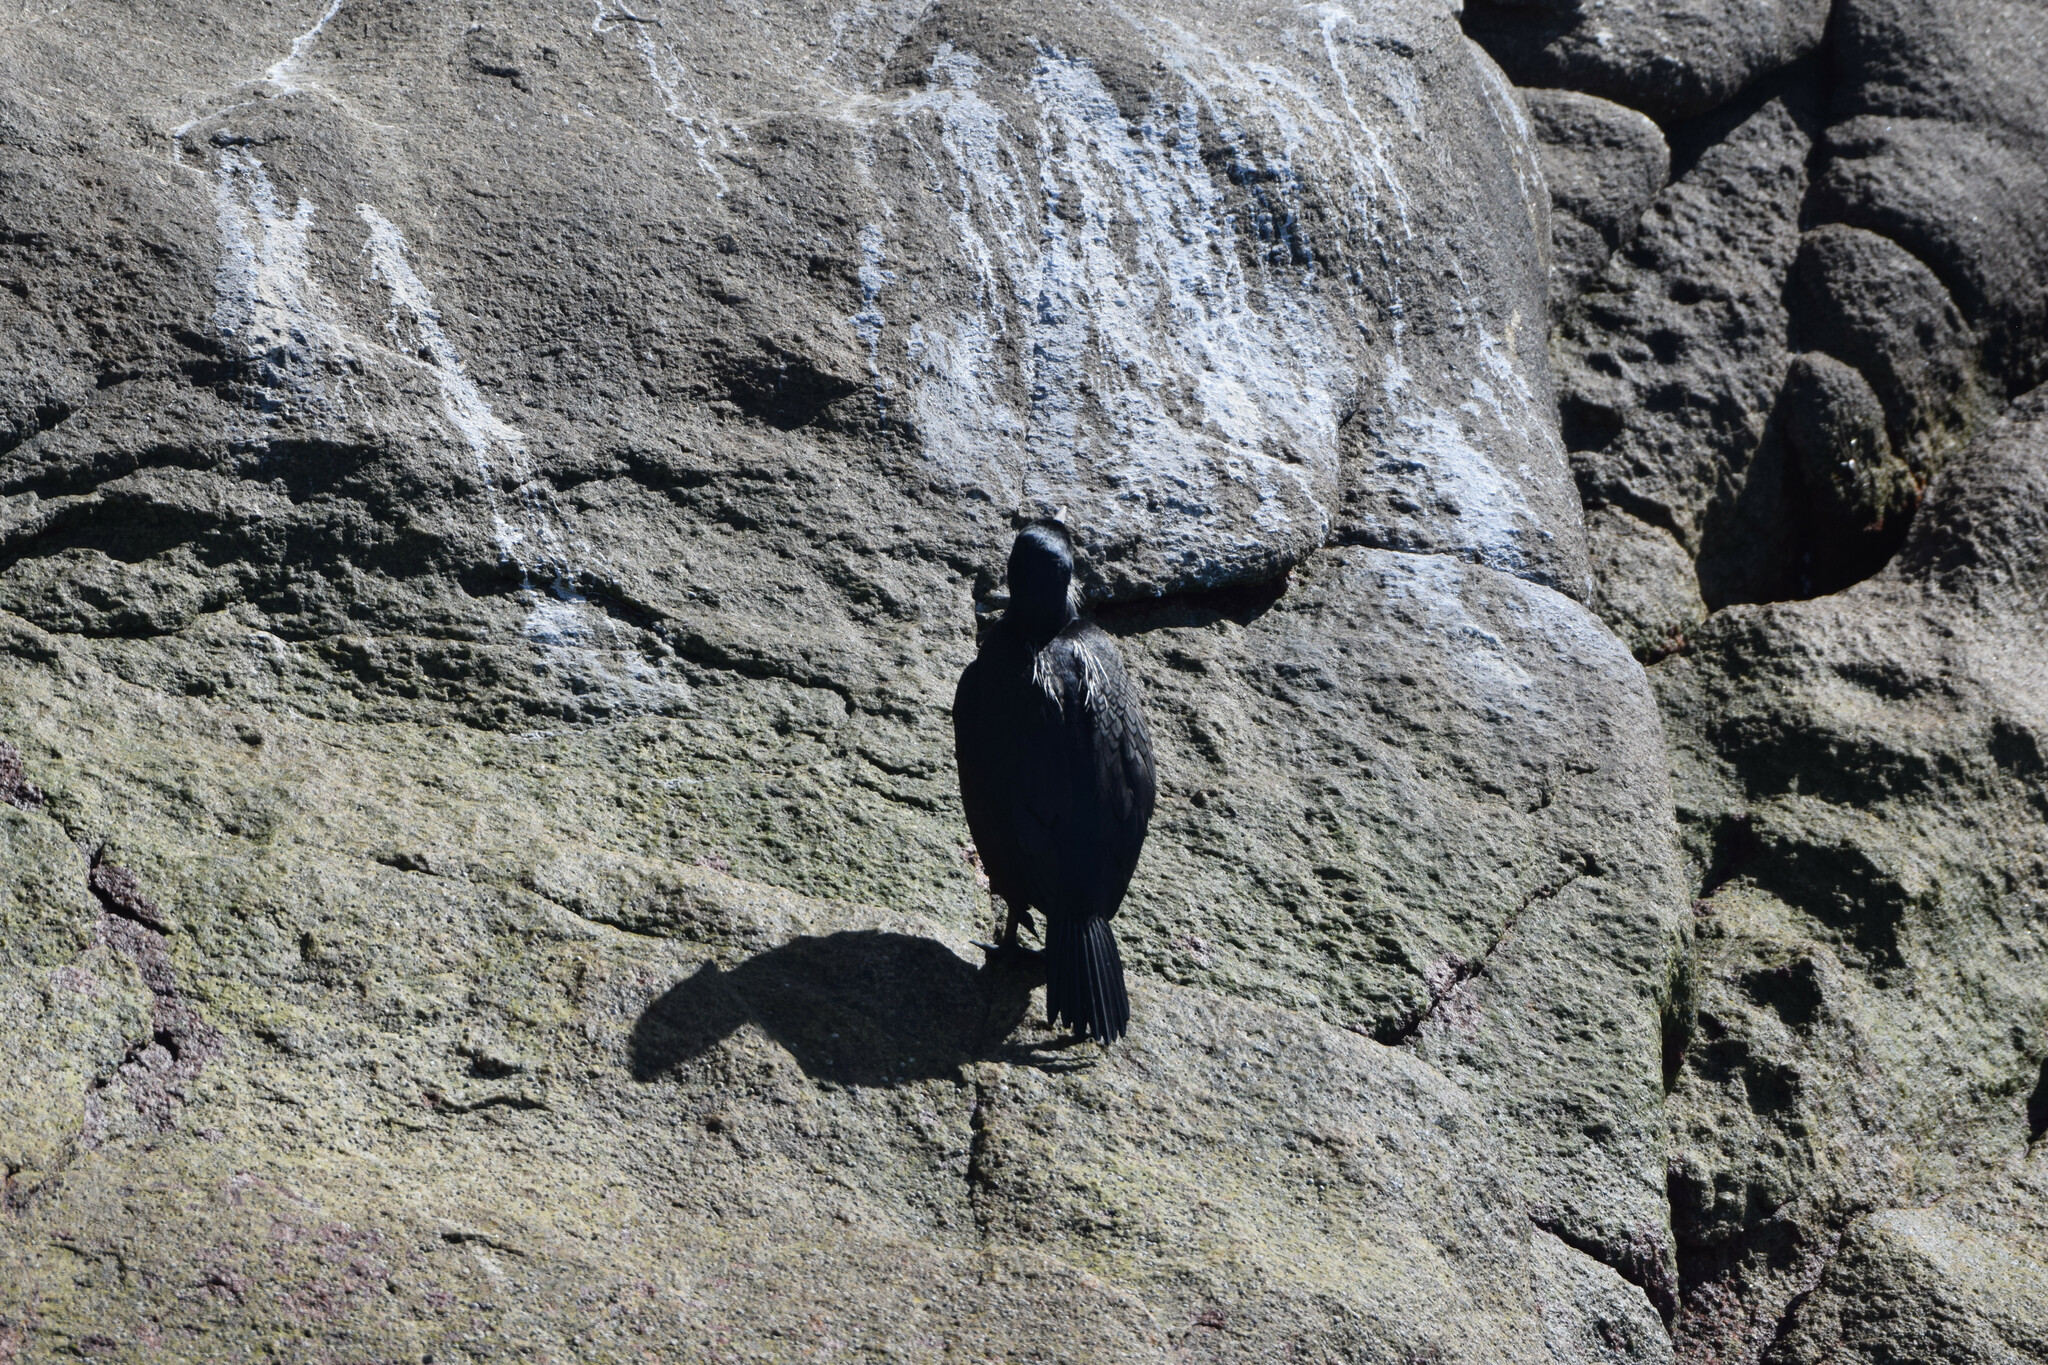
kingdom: Animalia
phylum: Chordata
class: Aves
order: Suliformes
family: Phalacrocoracidae
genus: Urile
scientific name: Urile penicillatus
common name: Brandt's cormorant
